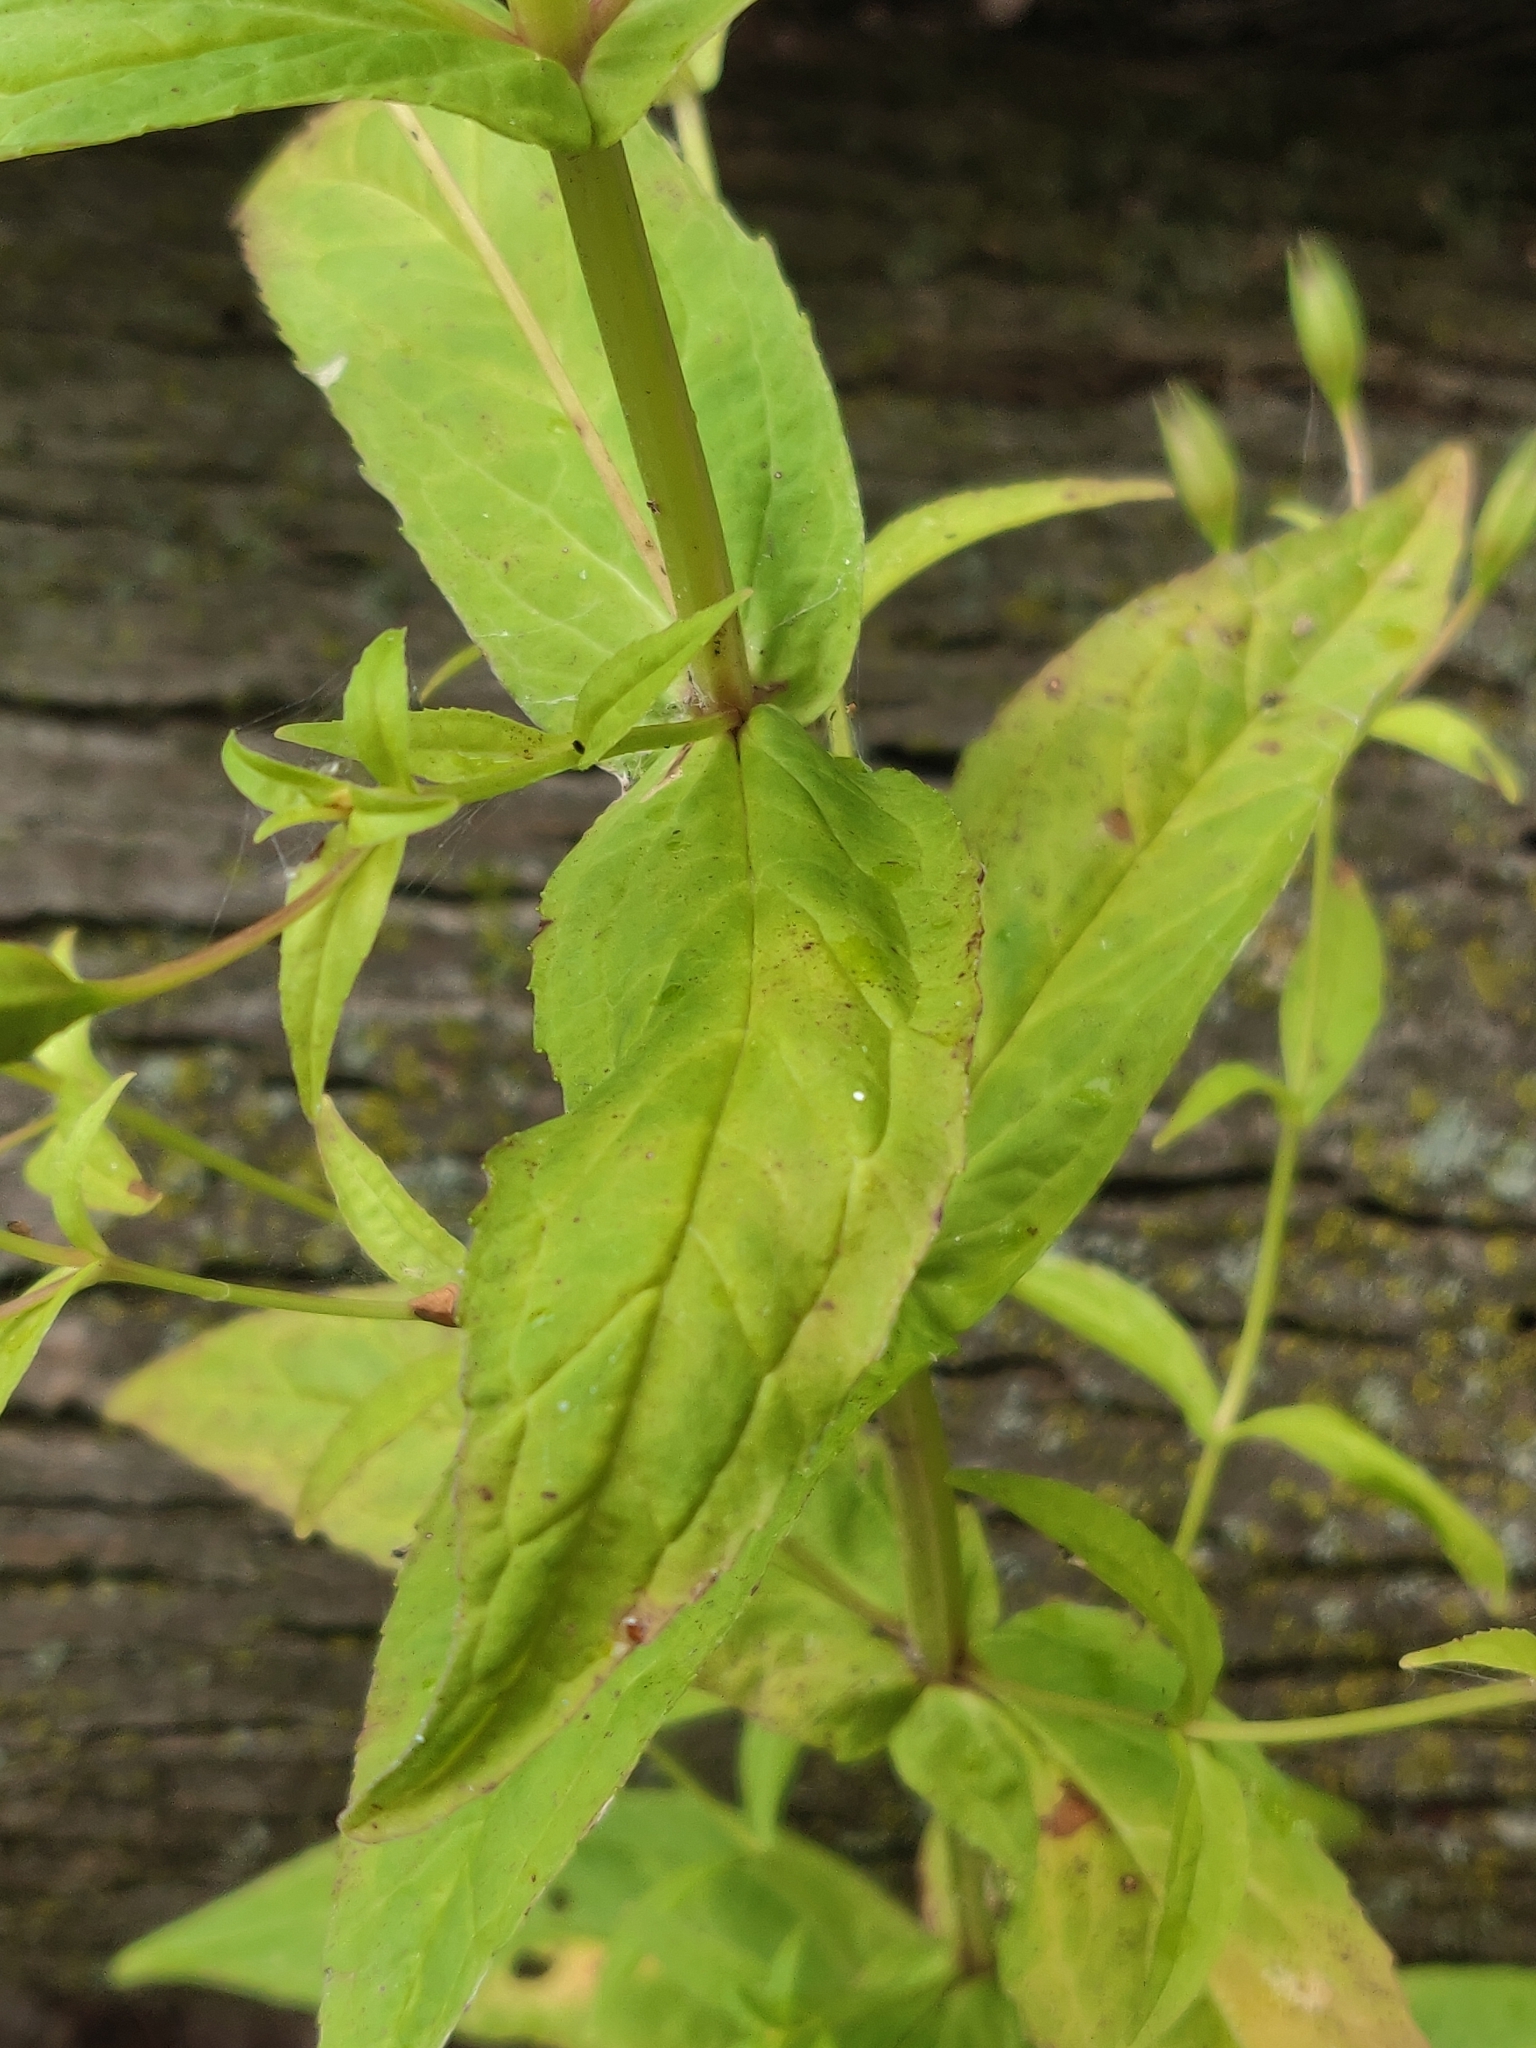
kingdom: Plantae
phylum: Tracheophyta
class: Magnoliopsida
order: Lamiales
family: Phrymaceae
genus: Mimulus
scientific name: Mimulus ringens
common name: Allegheny monkeyflower
